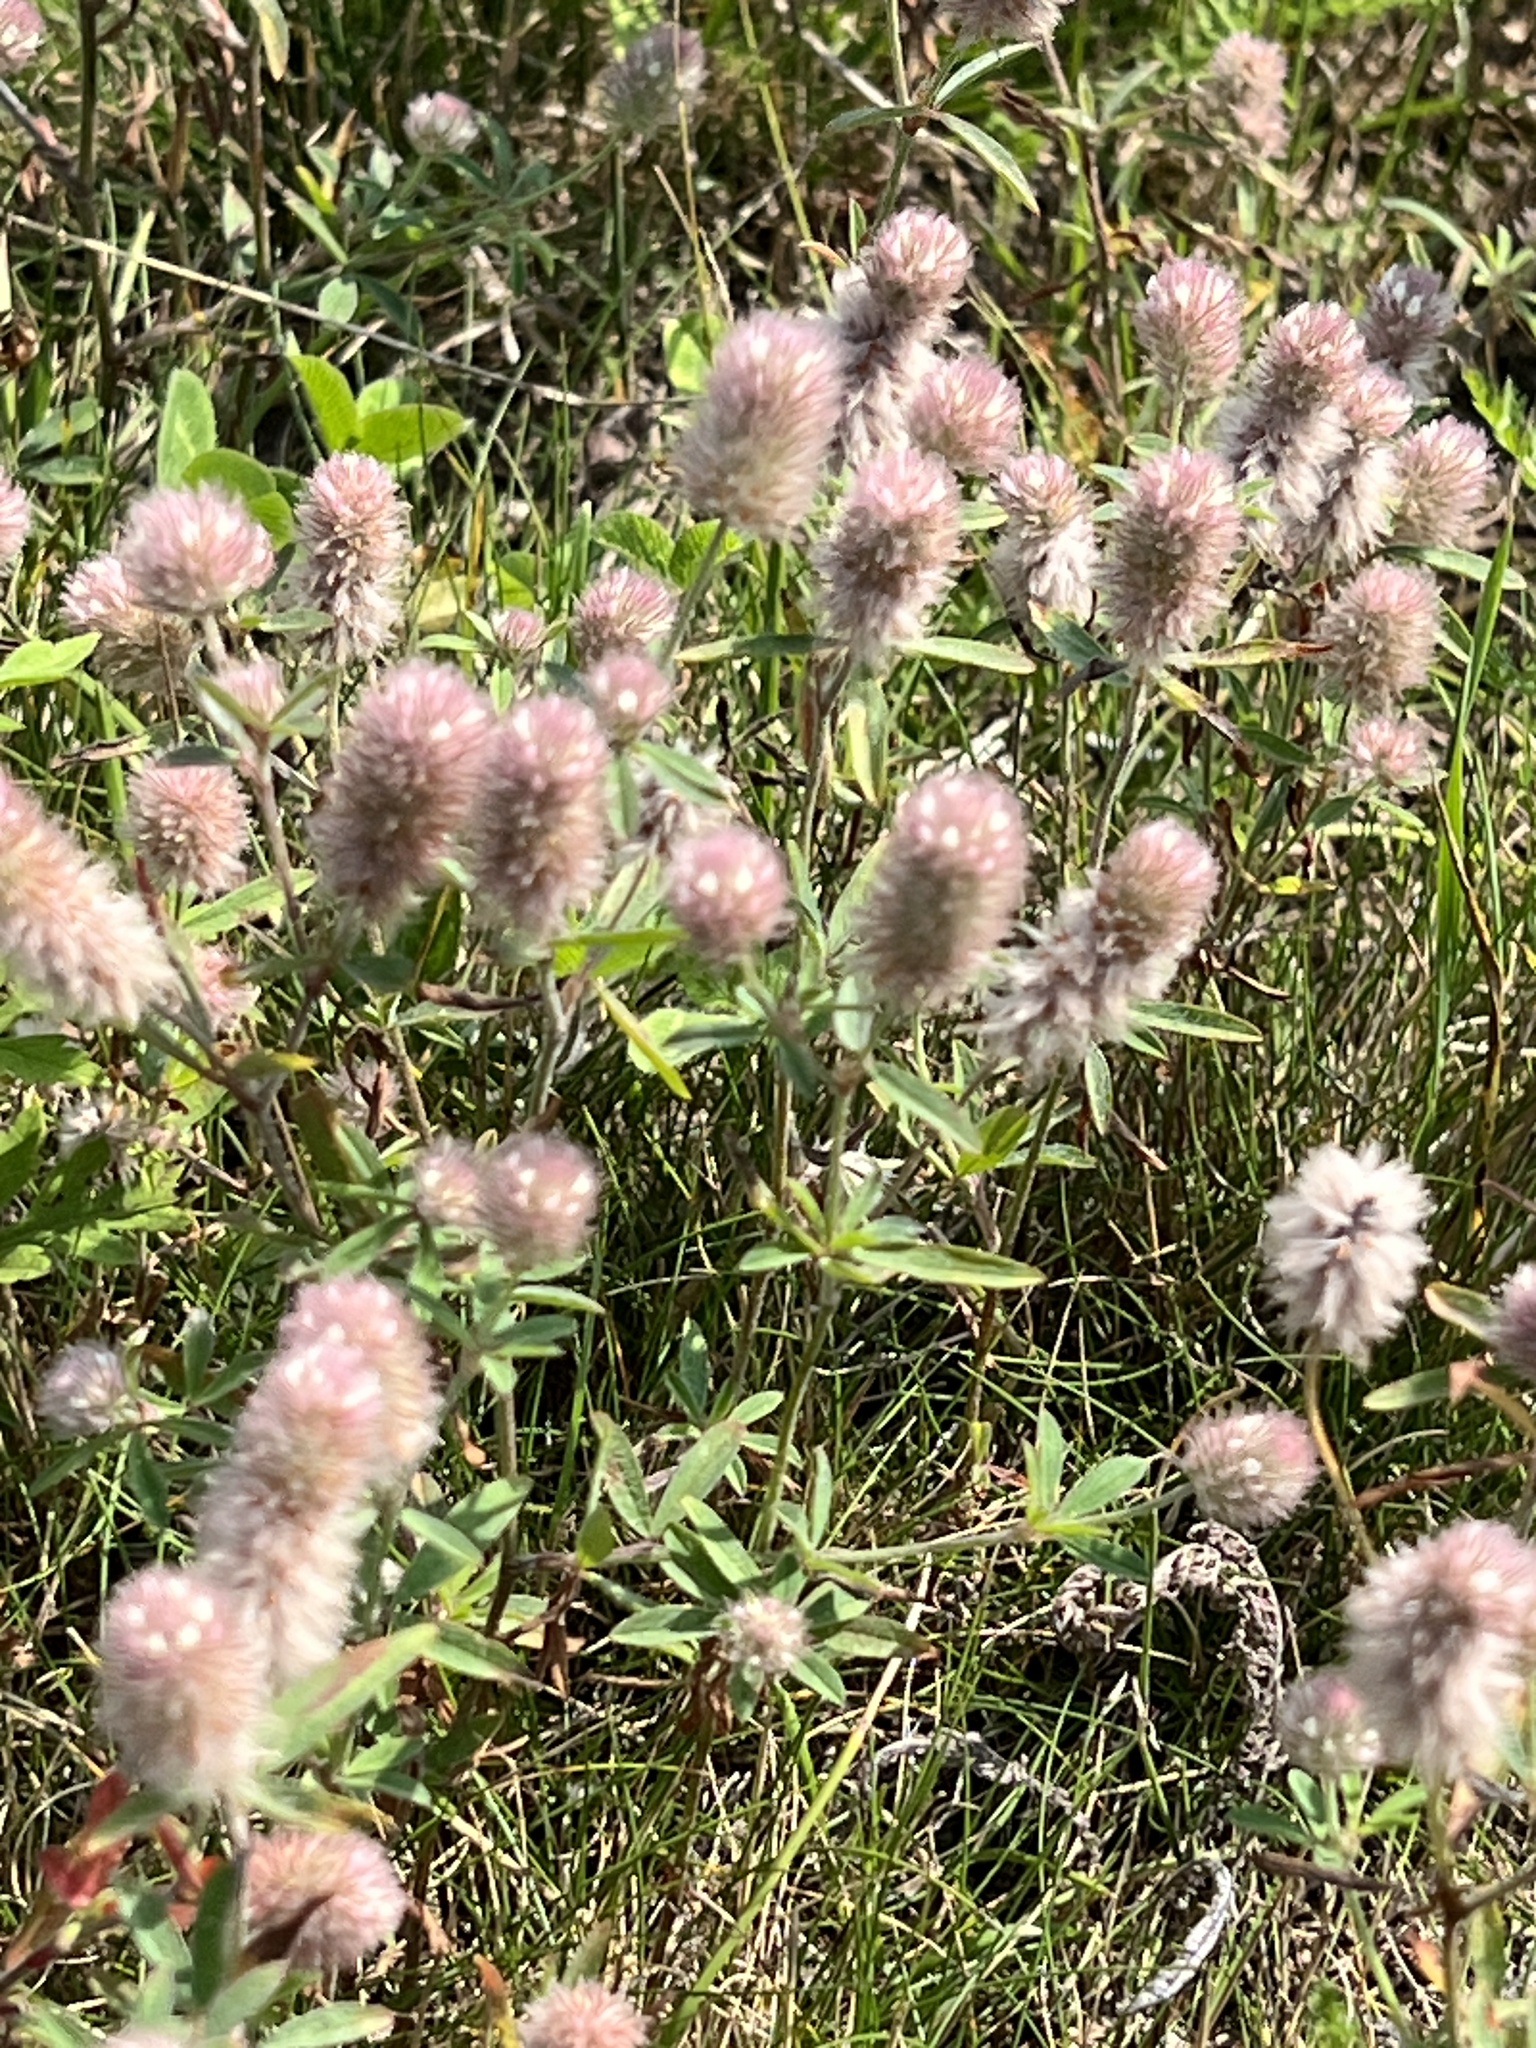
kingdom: Plantae
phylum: Tracheophyta
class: Magnoliopsida
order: Fabales
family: Fabaceae
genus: Trifolium
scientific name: Trifolium arvense
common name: Hare's-foot clover
